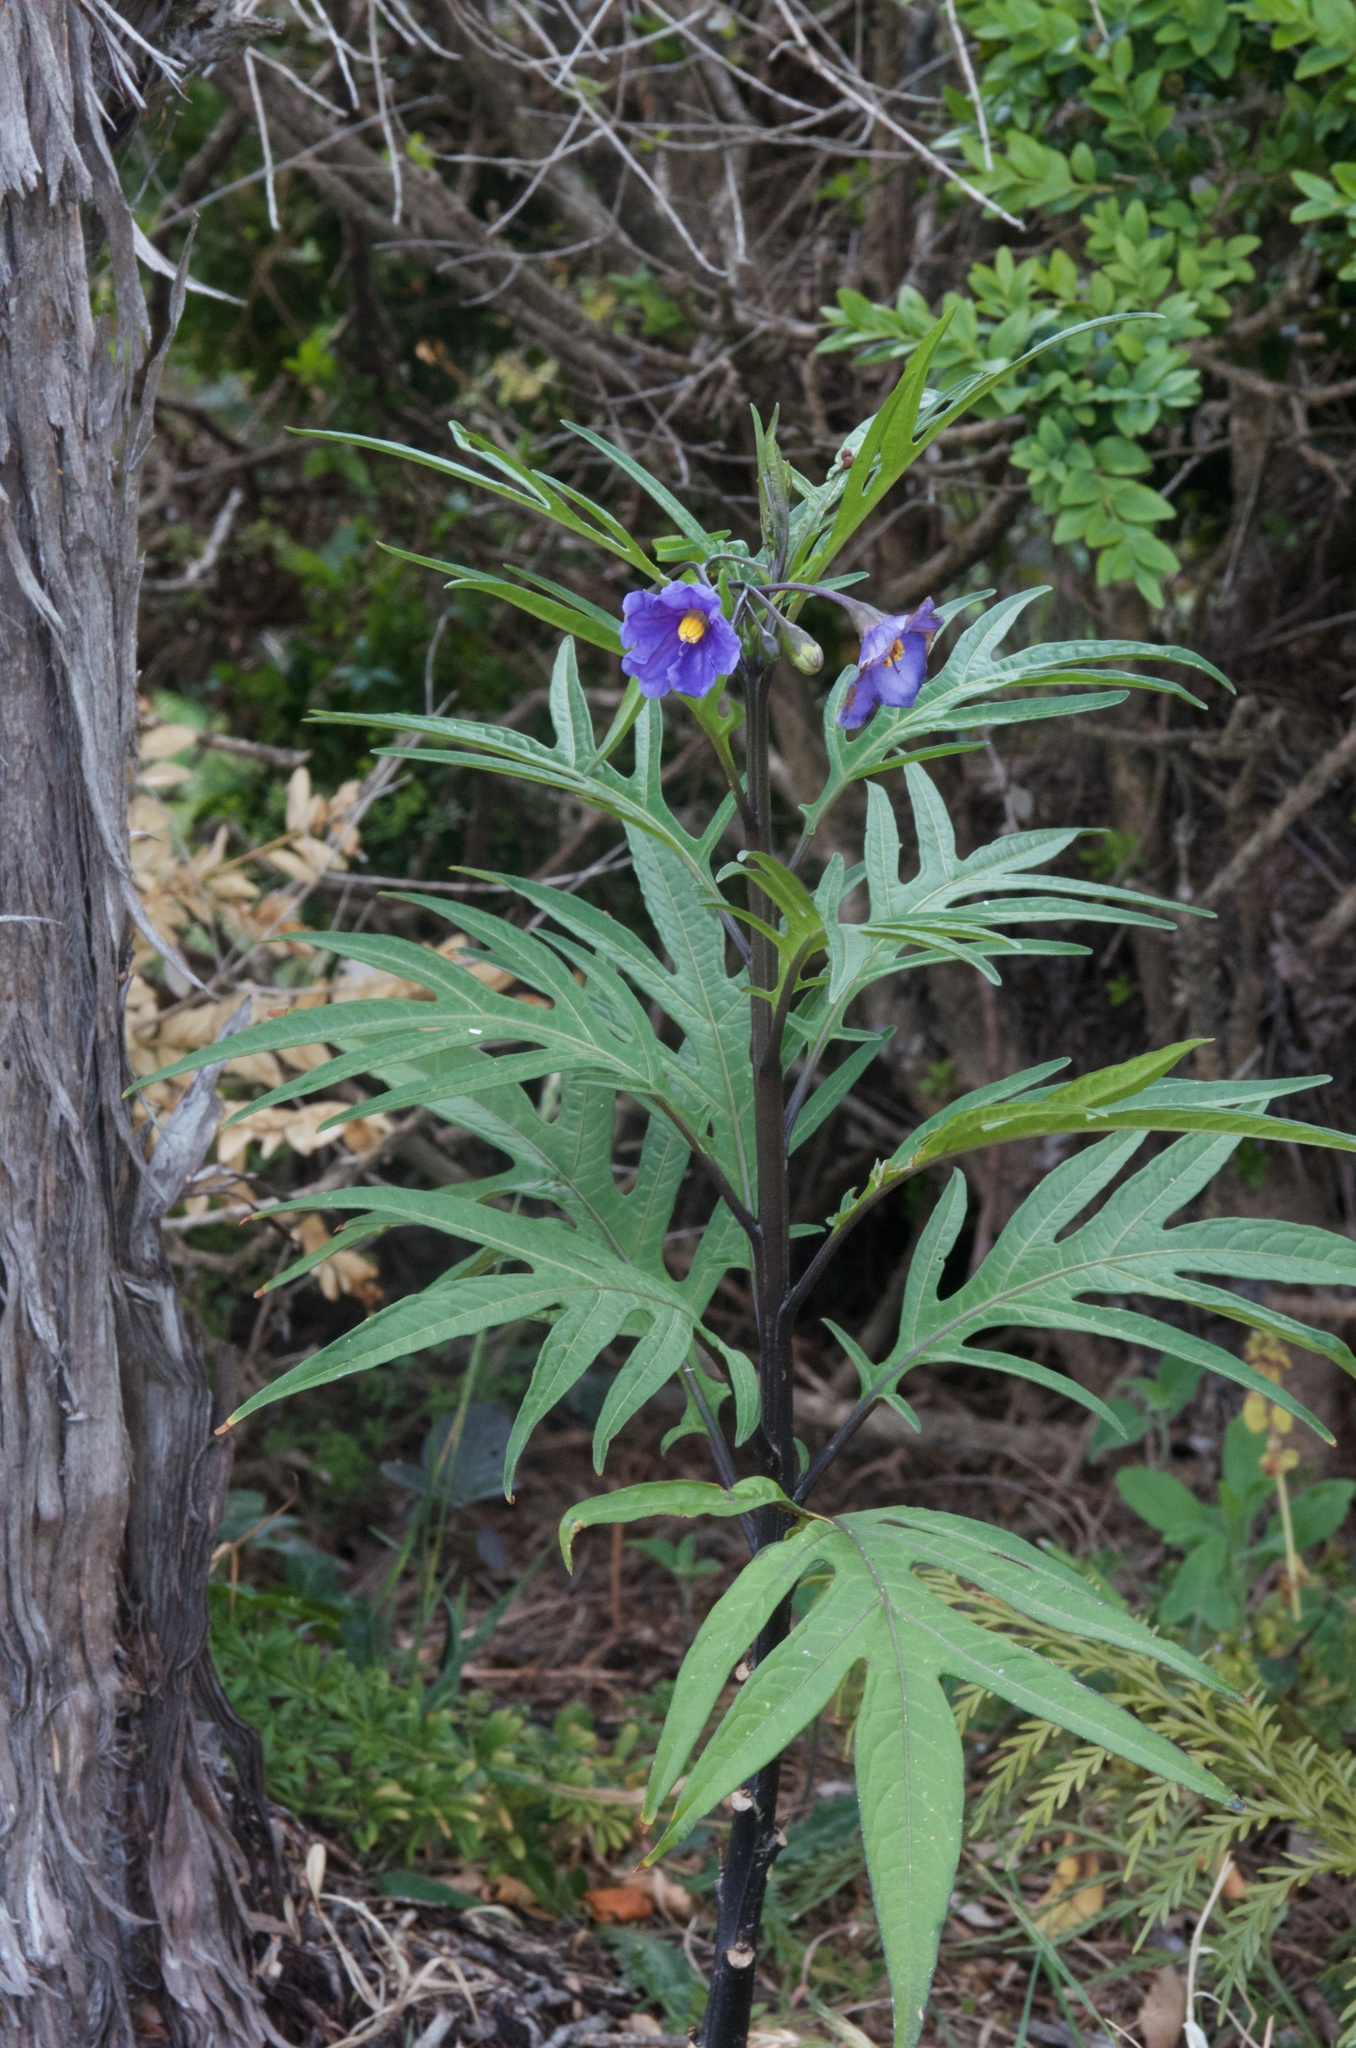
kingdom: Plantae
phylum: Tracheophyta
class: Magnoliopsida
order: Solanales
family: Solanaceae
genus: Solanum
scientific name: Solanum laciniatum
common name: Kangaroo-apple
